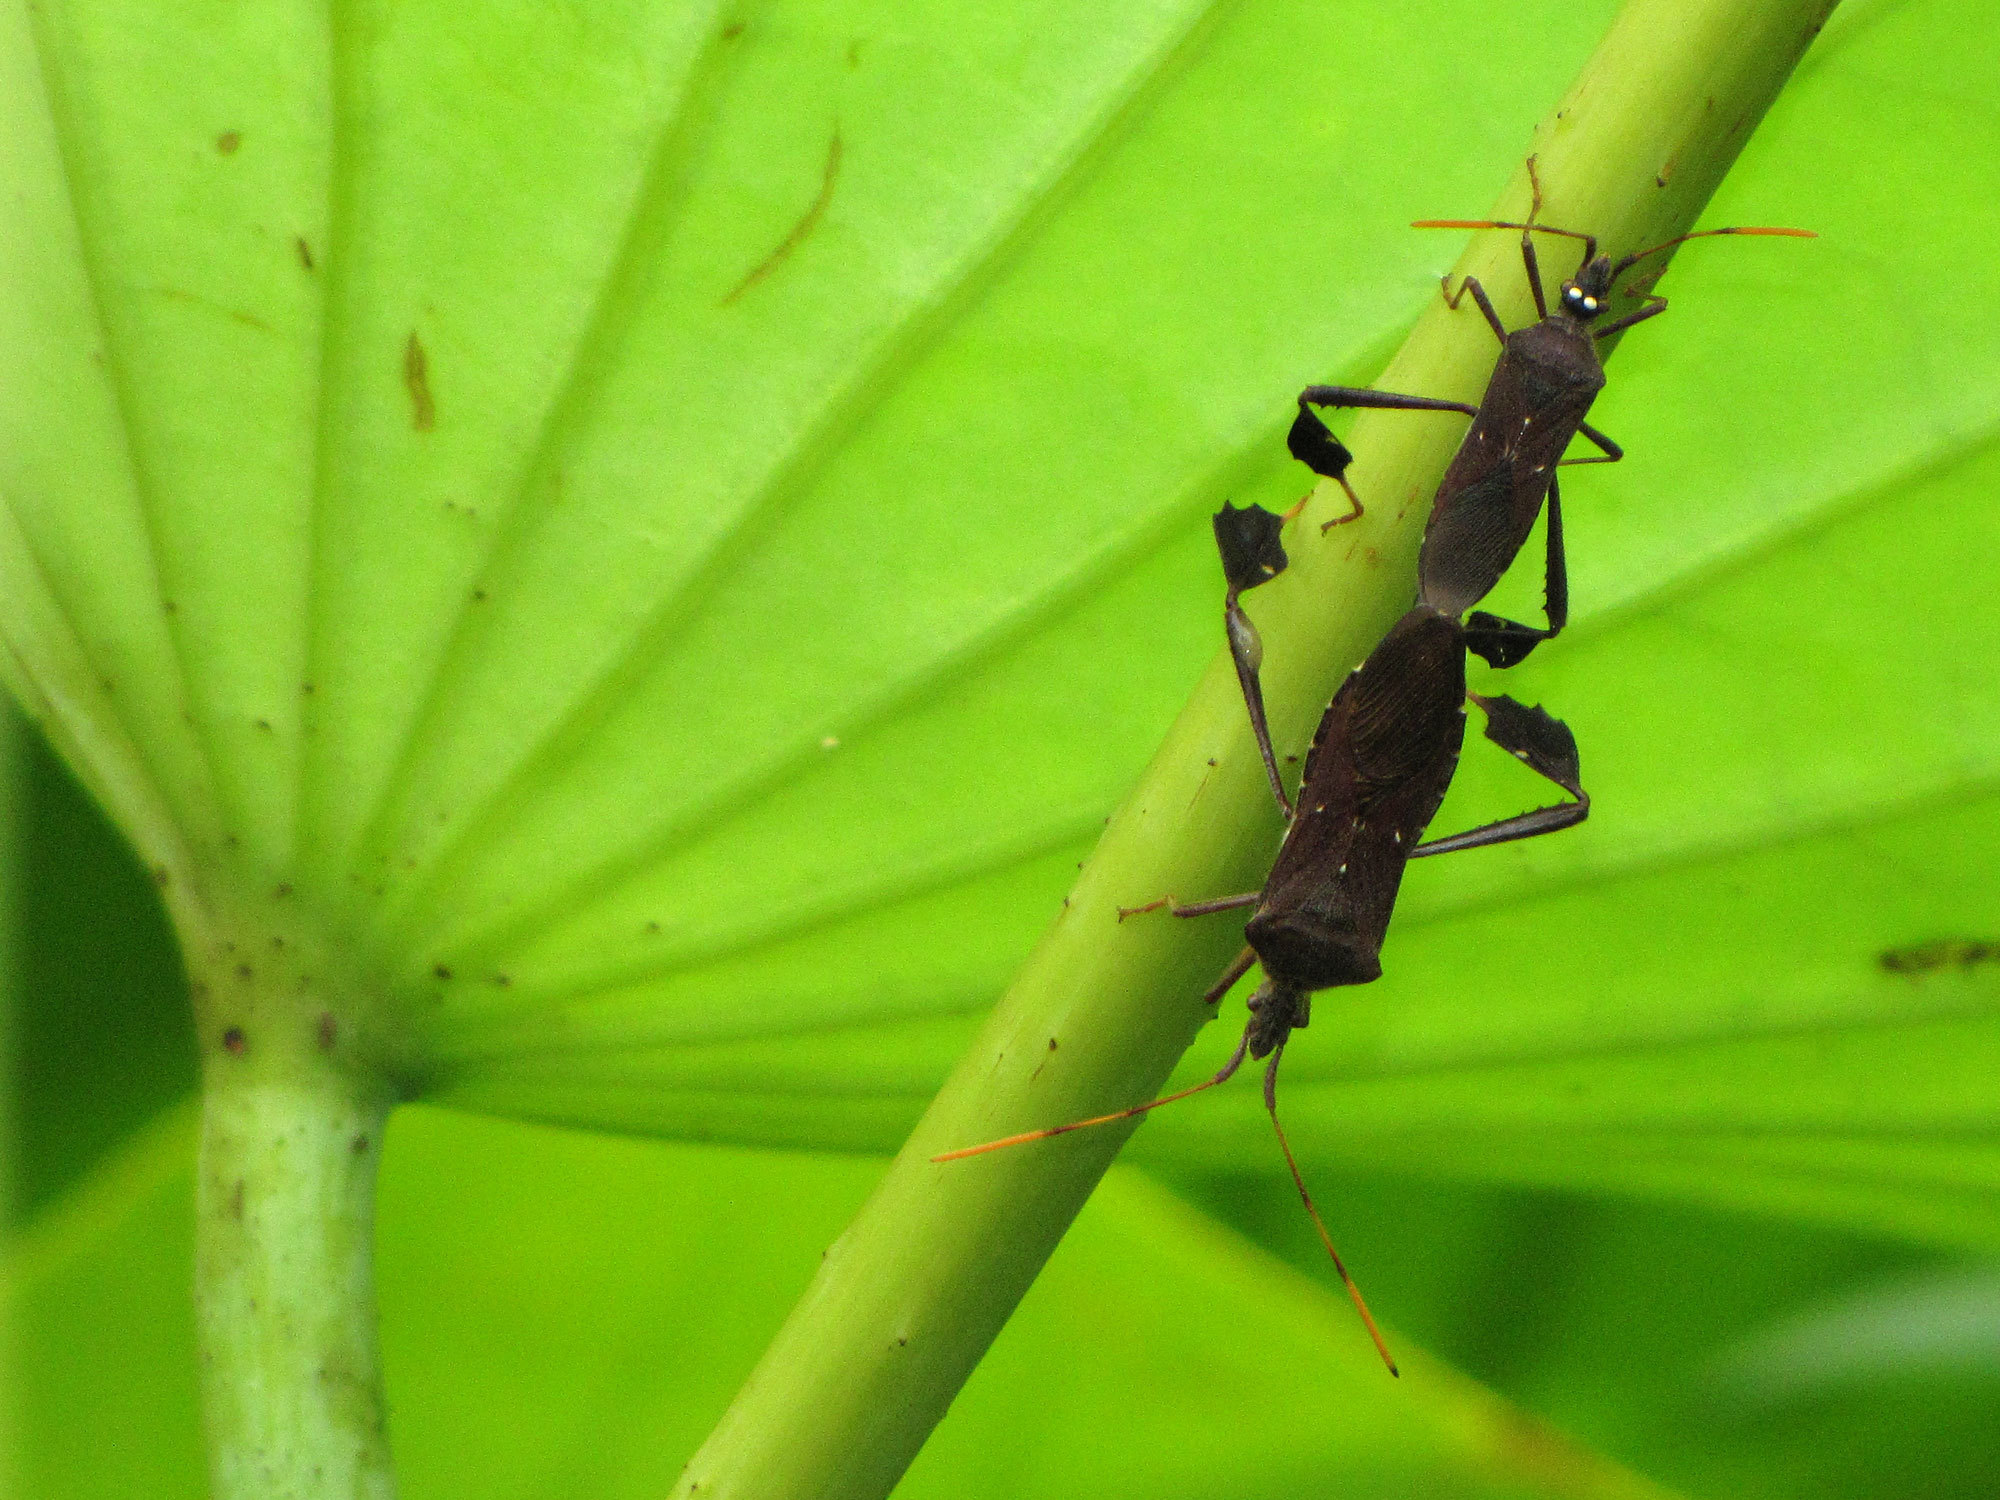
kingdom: Animalia
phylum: Arthropoda
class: Insecta
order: Hemiptera
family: Coreidae
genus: Leptoglossus
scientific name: Leptoglossus oppositus
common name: Northern leaf-footed bug
